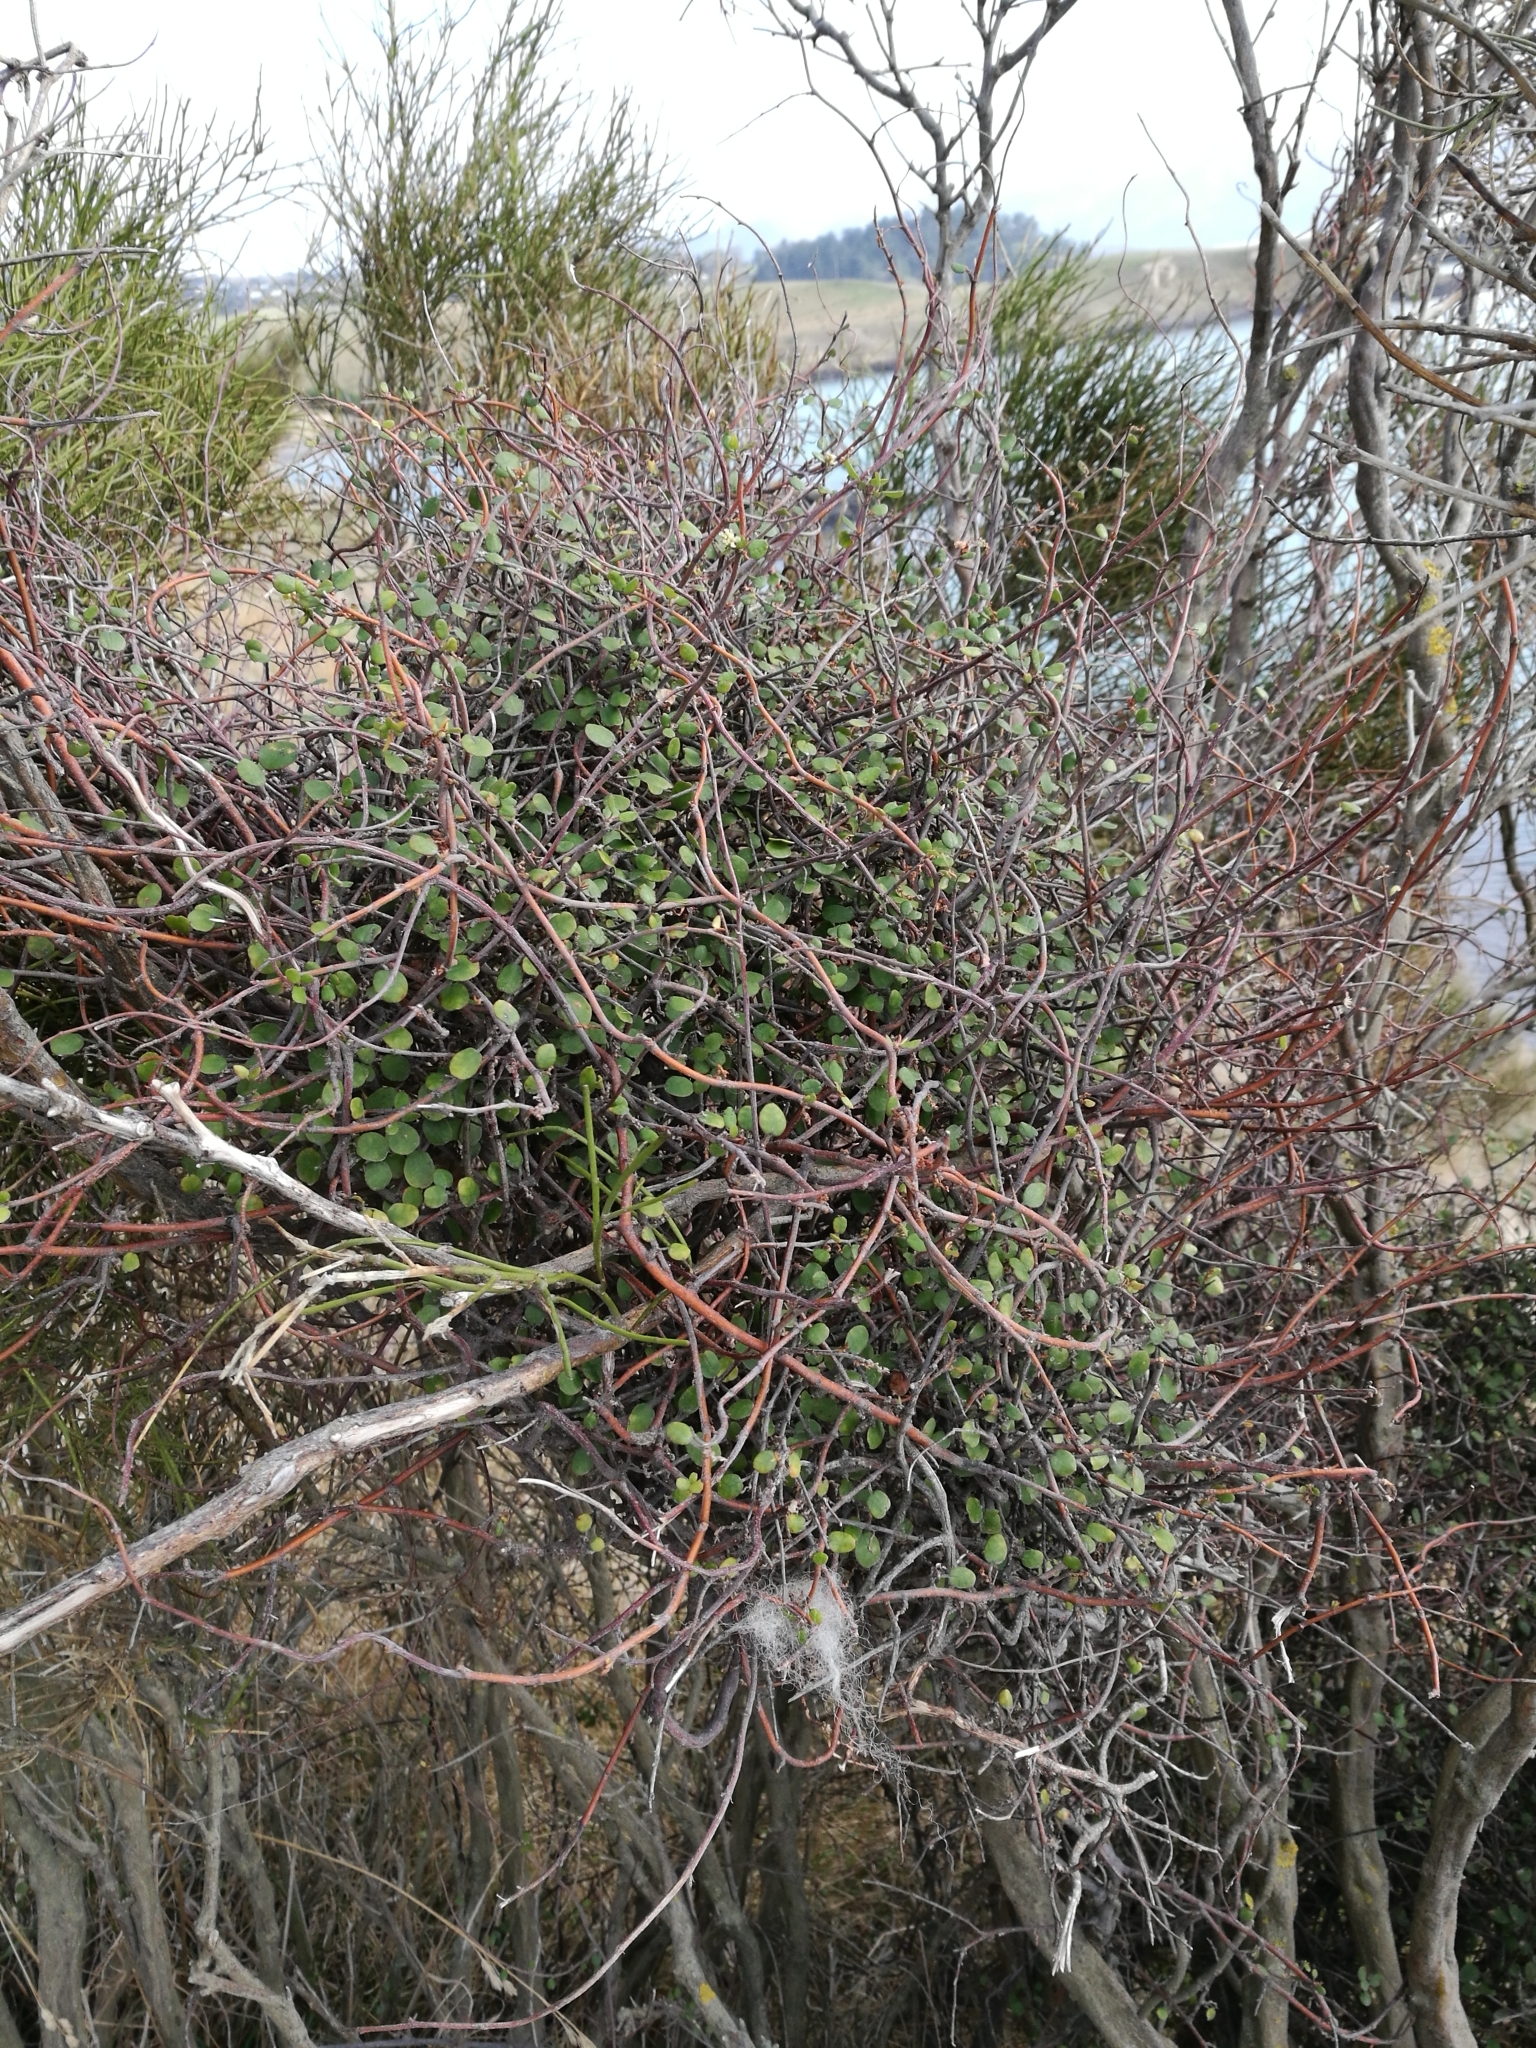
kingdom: Plantae
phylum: Tracheophyta
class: Magnoliopsida
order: Caryophyllales
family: Polygonaceae
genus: Muehlenbeckia
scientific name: Muehlenbeckia complexa
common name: Wireplant
